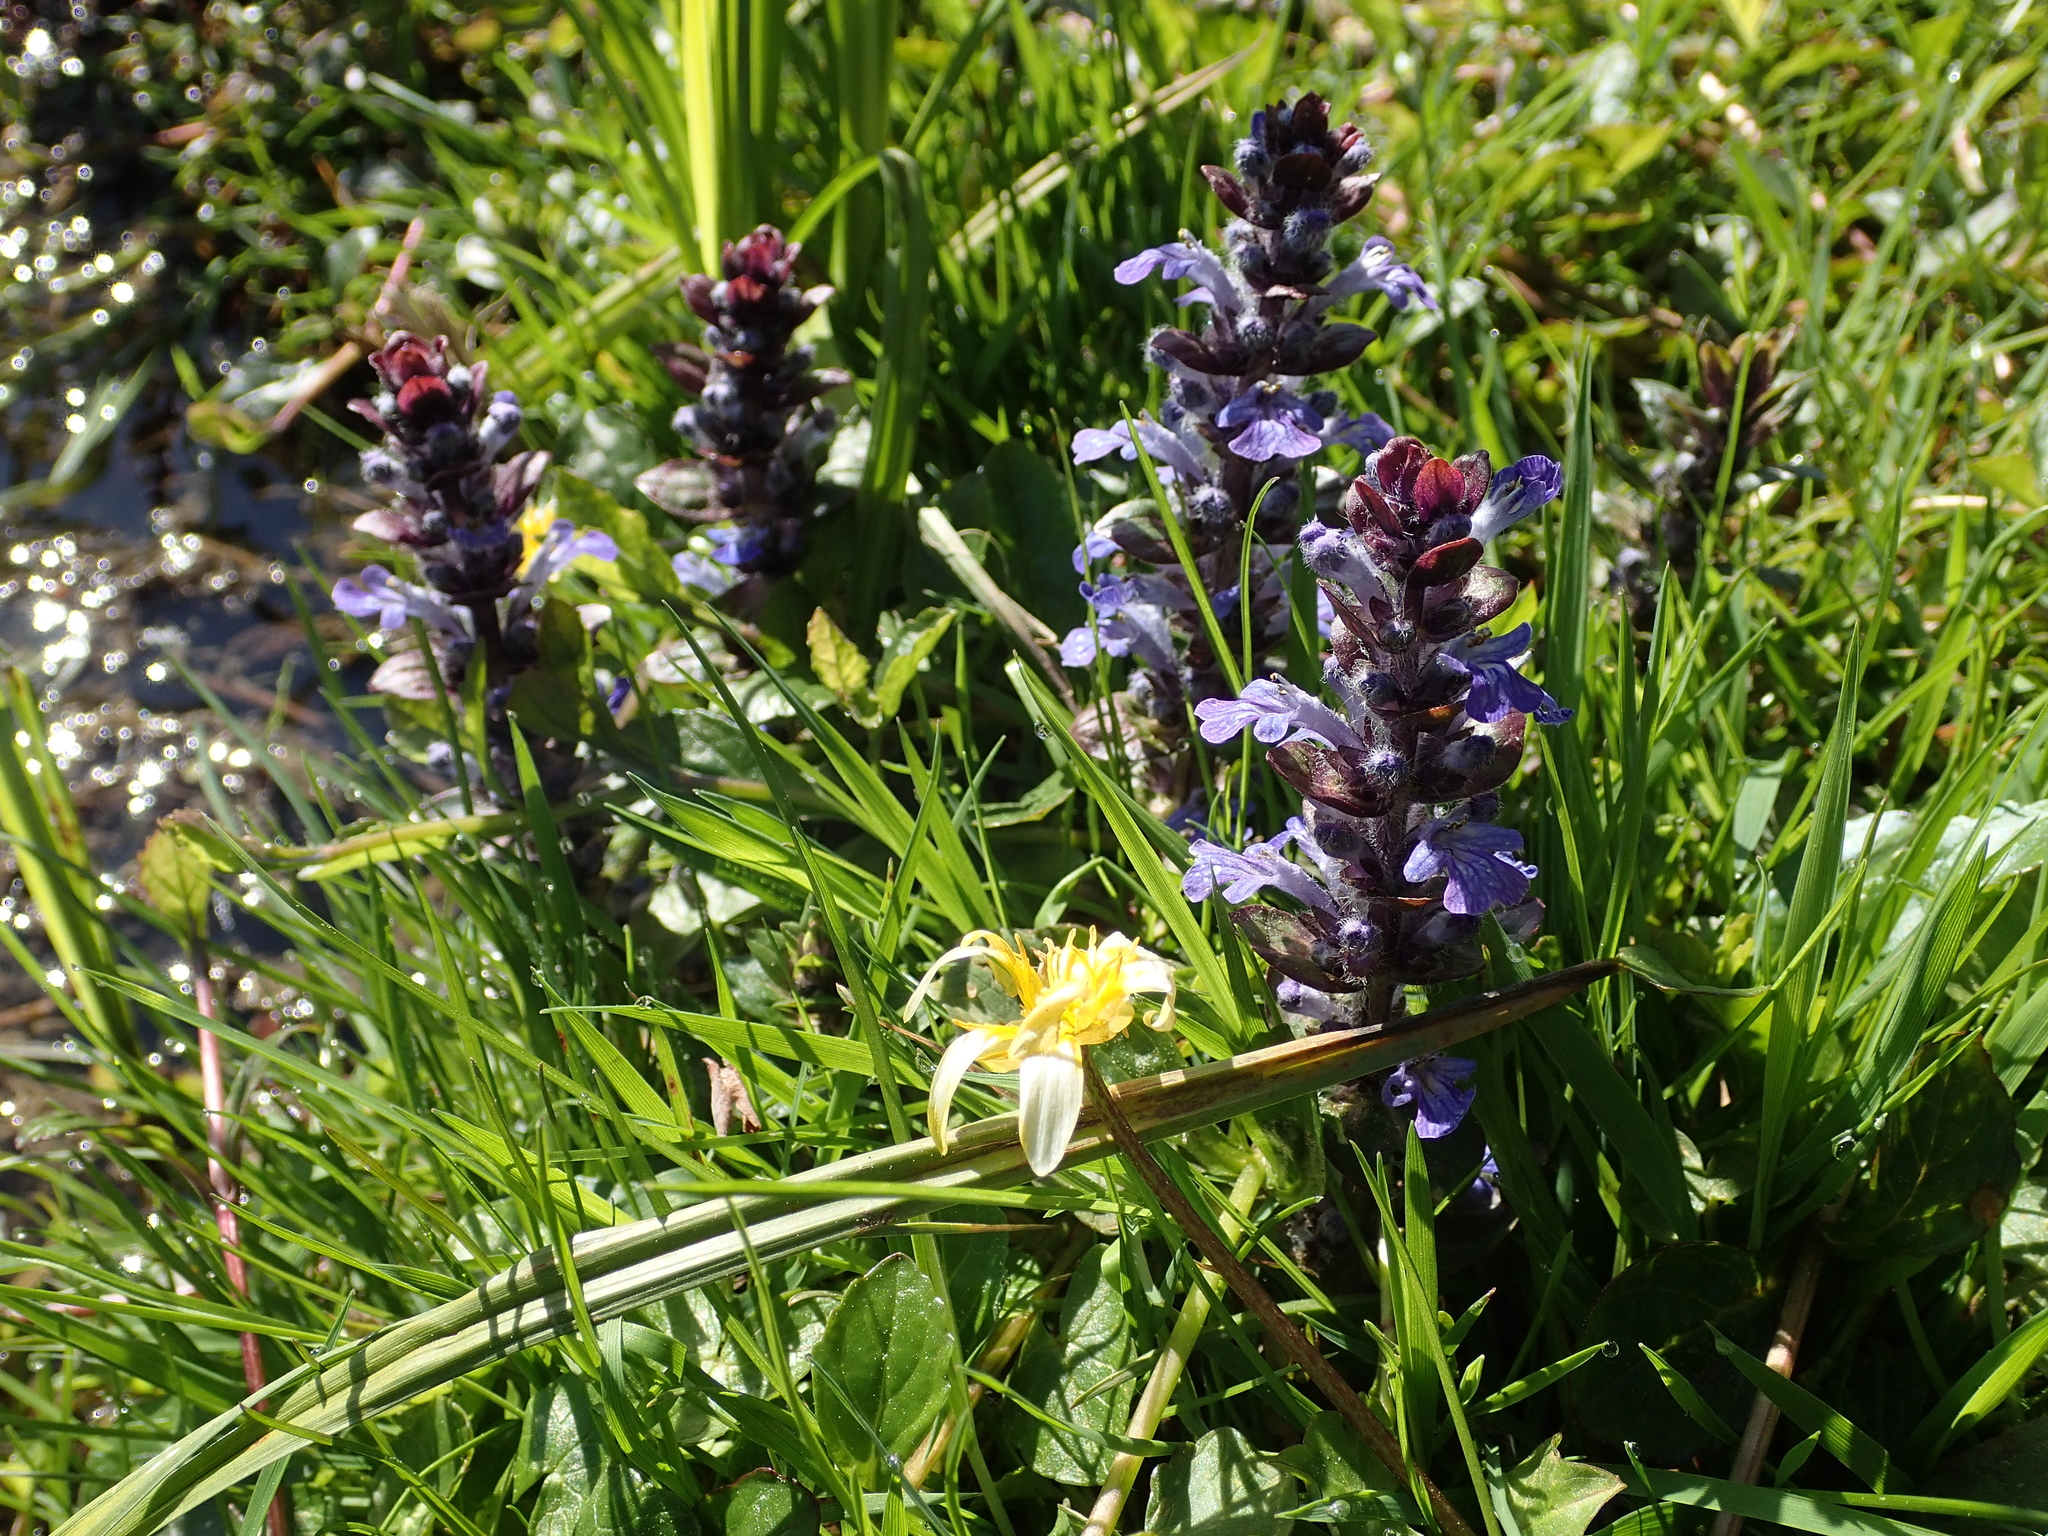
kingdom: Plantae
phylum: Tracheophyta
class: Magnoliopsida
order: Lamiales
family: Lamiaceae
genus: Ajuga
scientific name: Ajuga reptans
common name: Bugle
